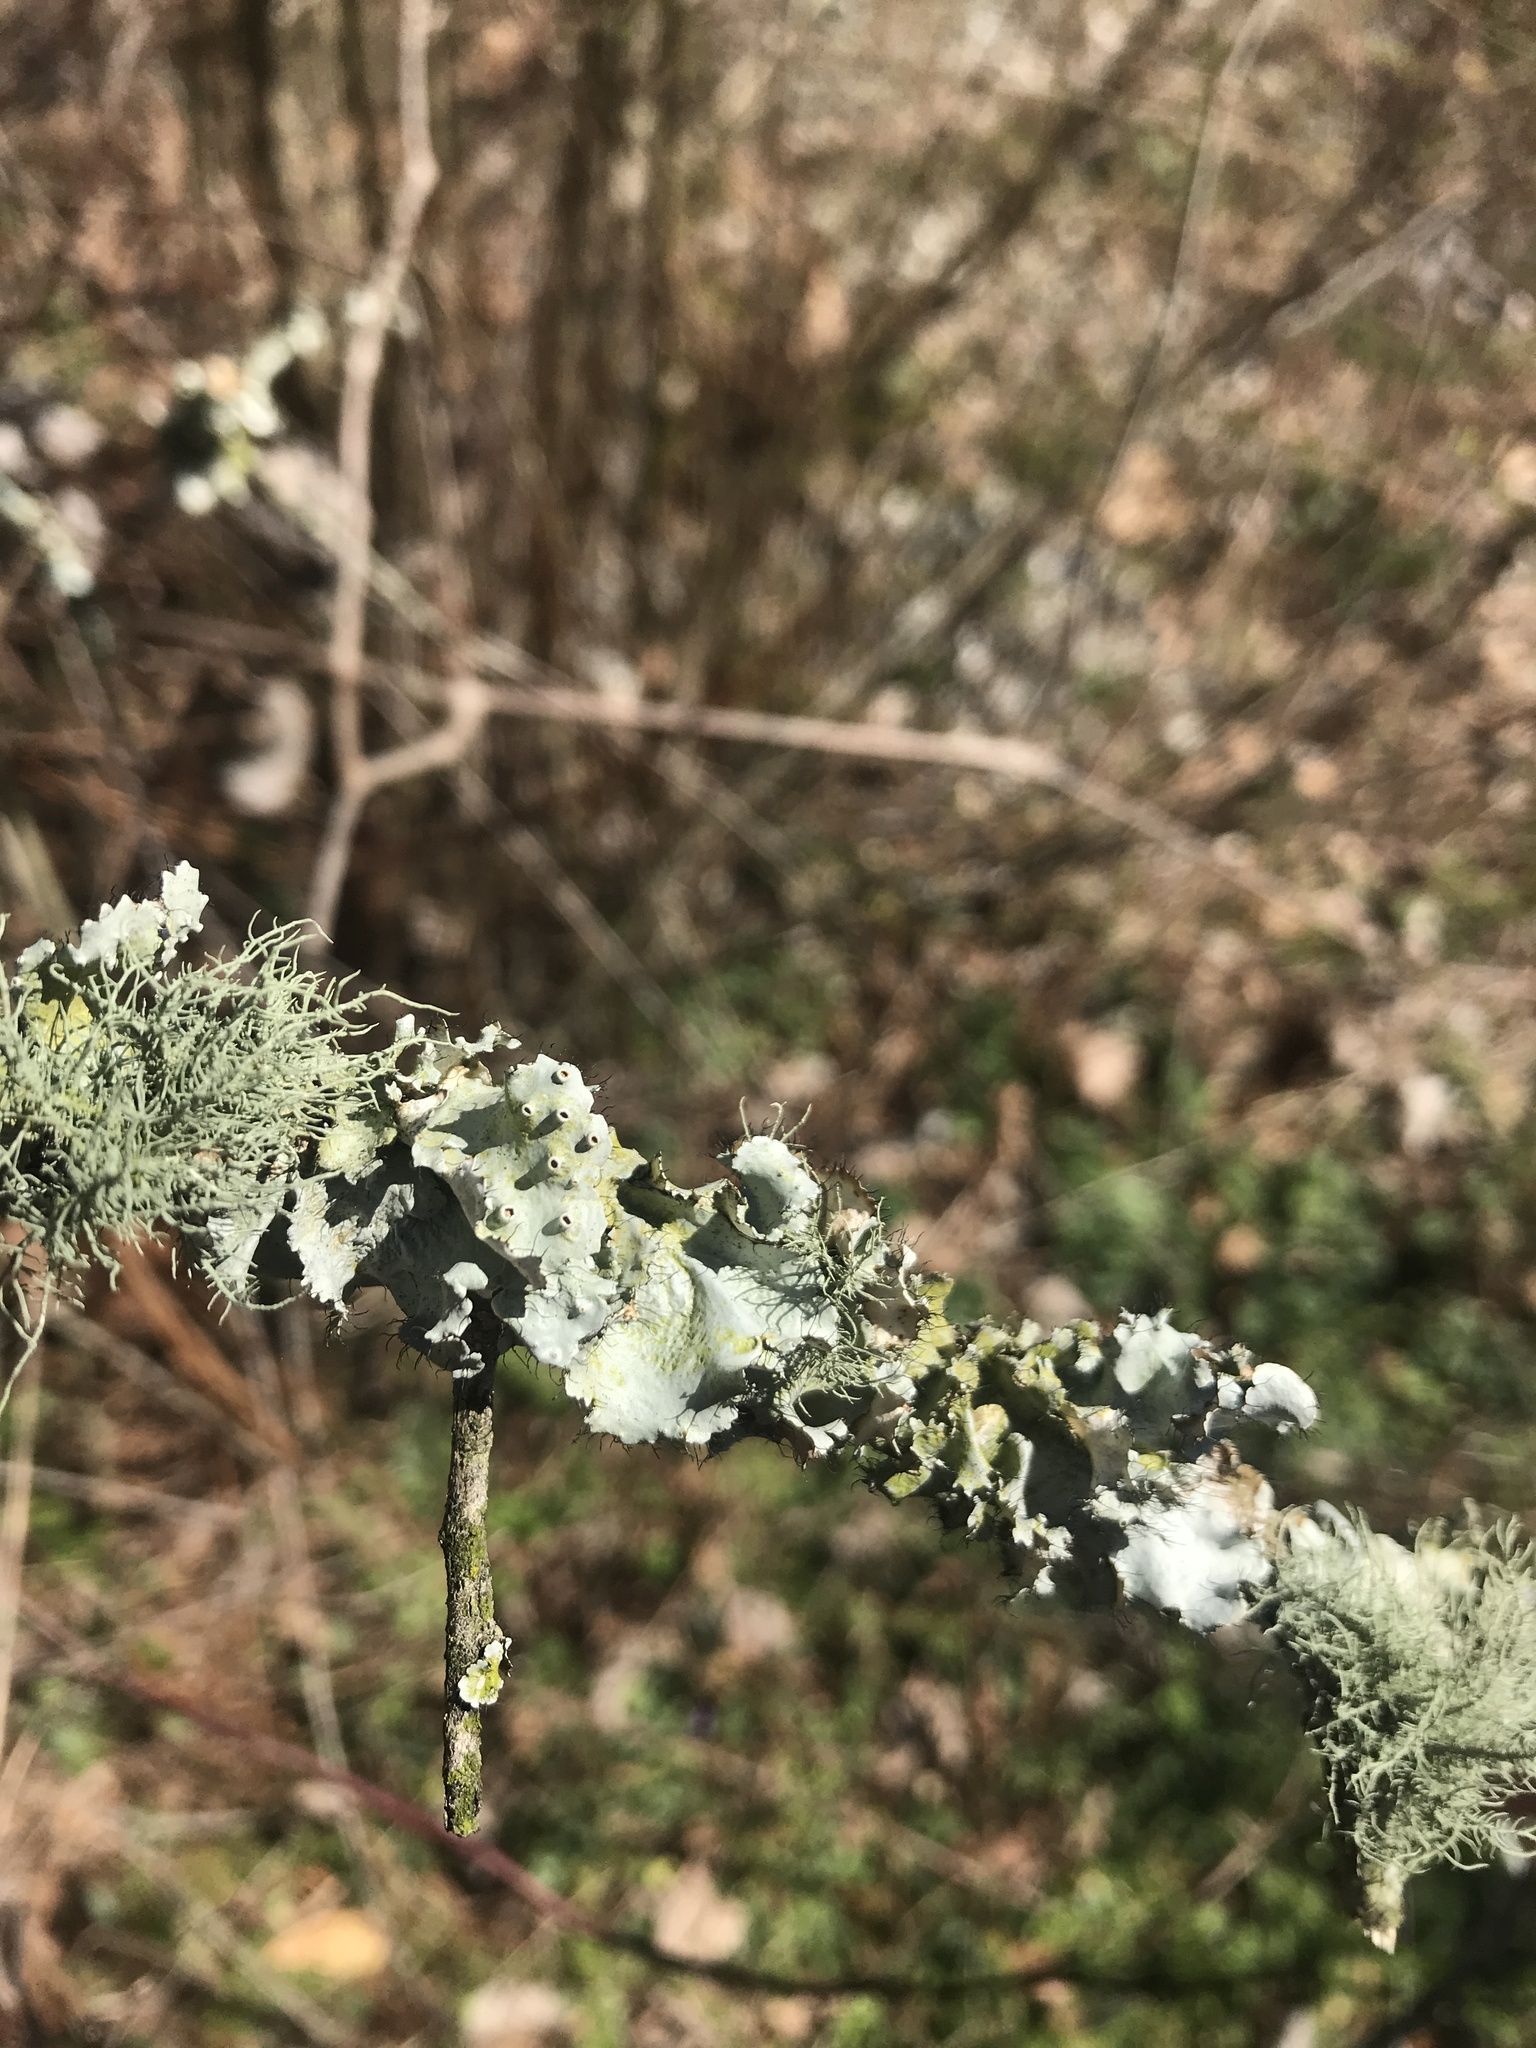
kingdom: Fungi
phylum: Ascomycota
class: Lecanoromycetes
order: Lecanorales
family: Parmeliaceae
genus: Parmotrema
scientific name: Parmotrema perforatum
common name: Perforated ruffle lichen
